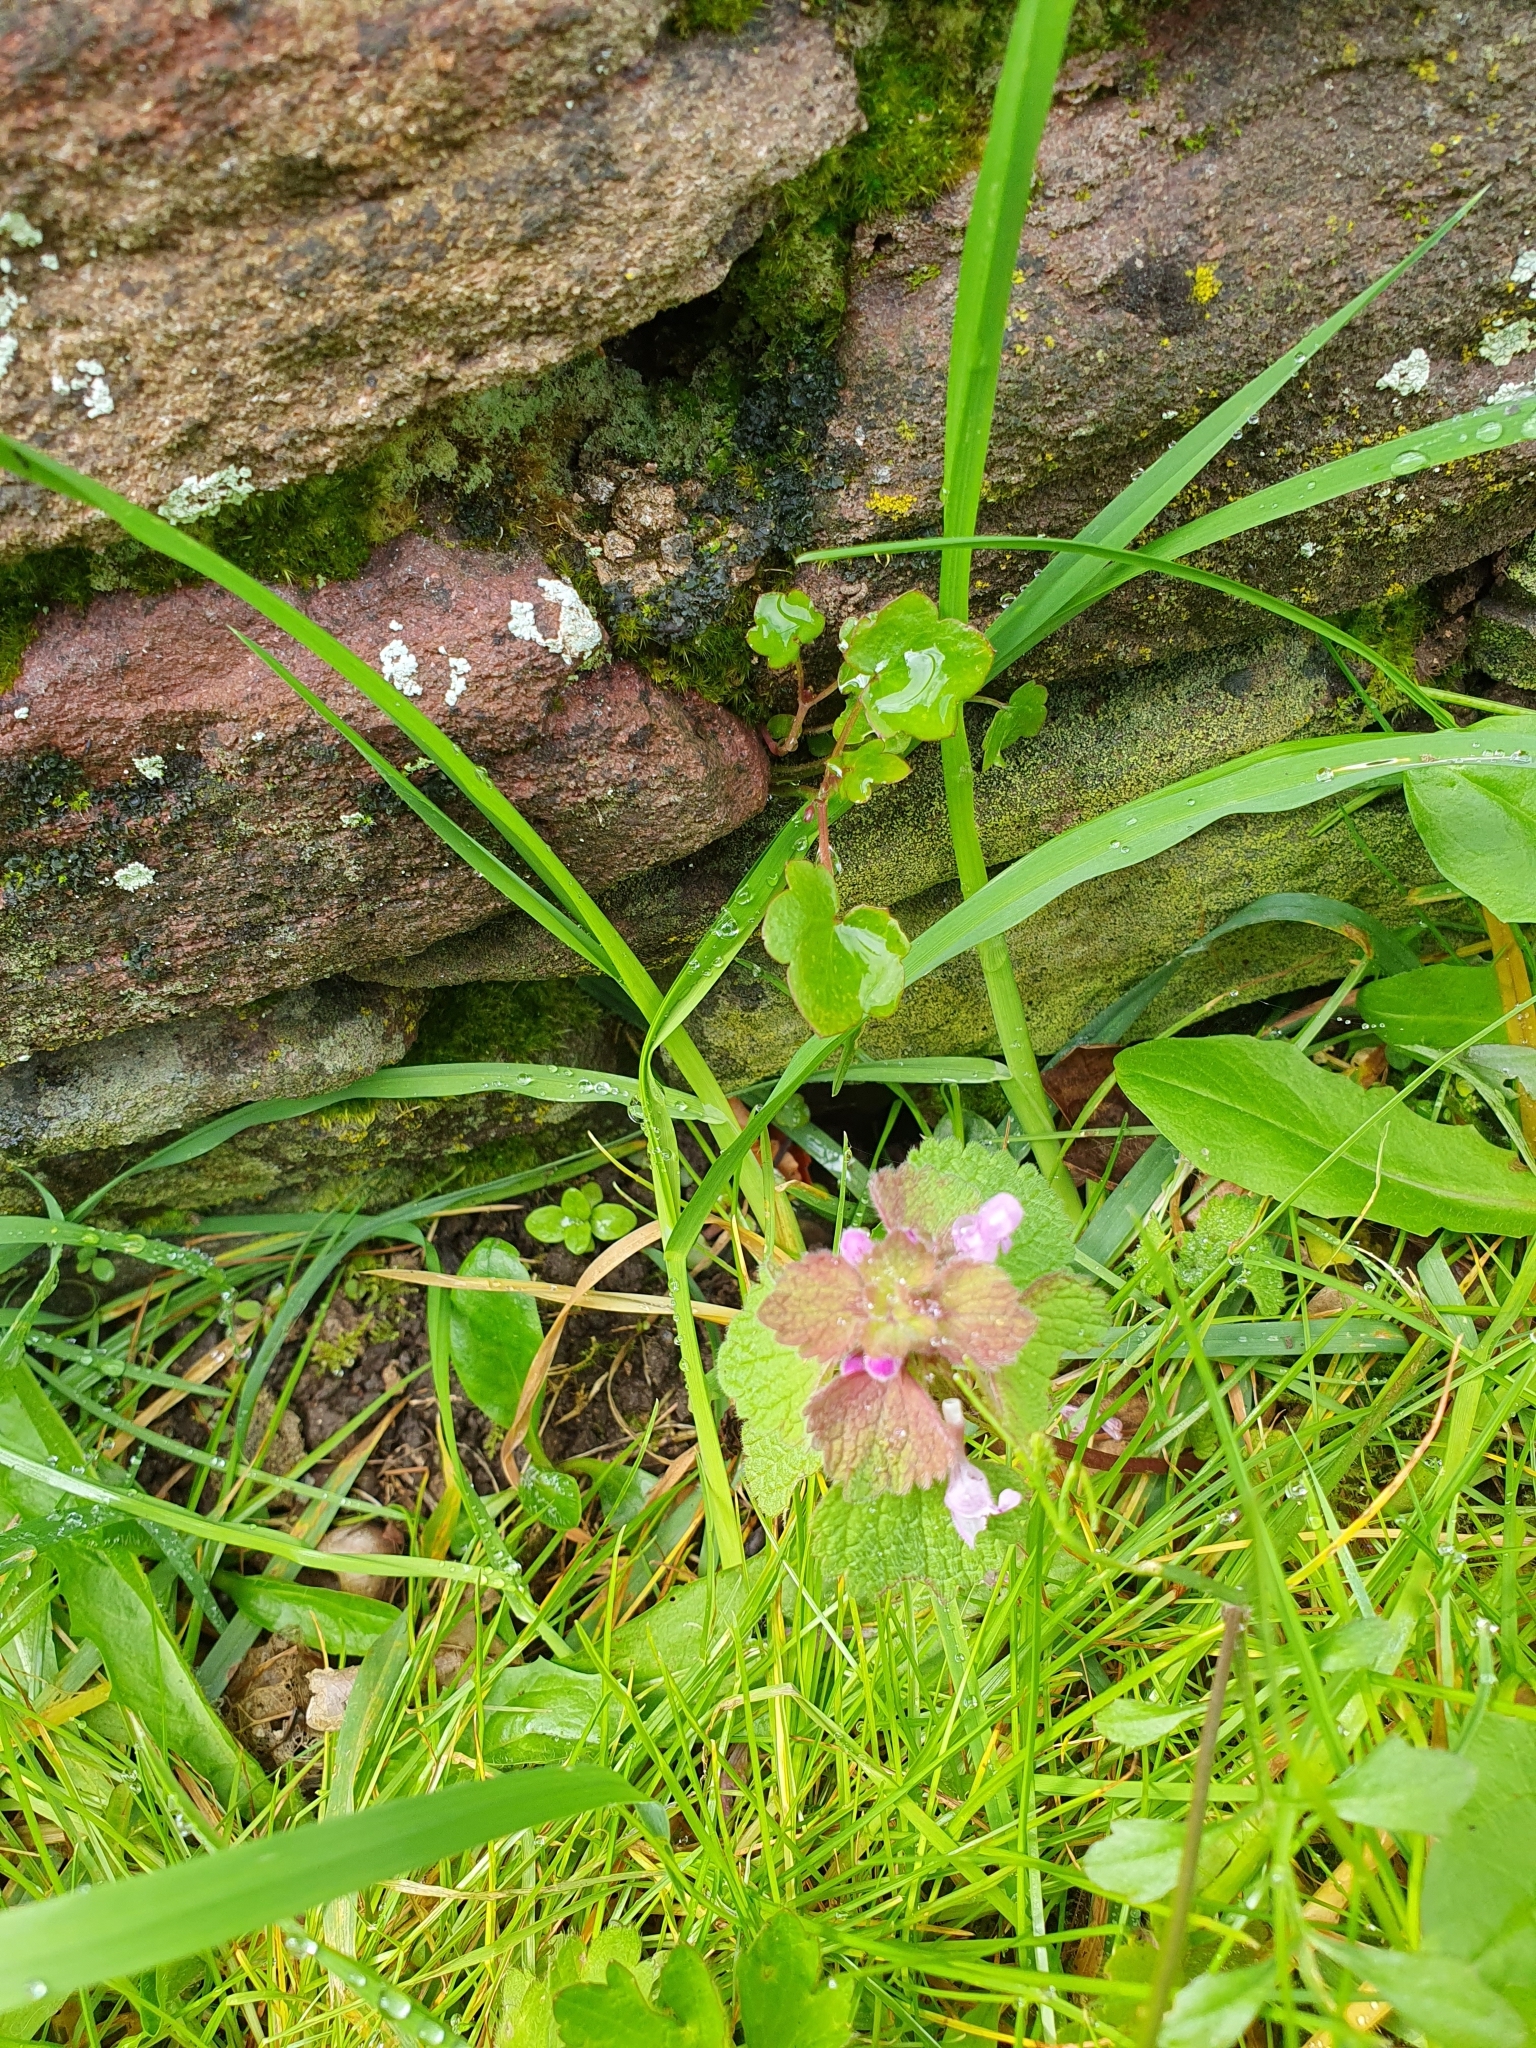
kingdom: Plantae
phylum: Tracheophyta
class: Magnoliopsida
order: Lamiales
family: Lamiaceae
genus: Lamium
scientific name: Lamium purpureum
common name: Red dead-nettle
